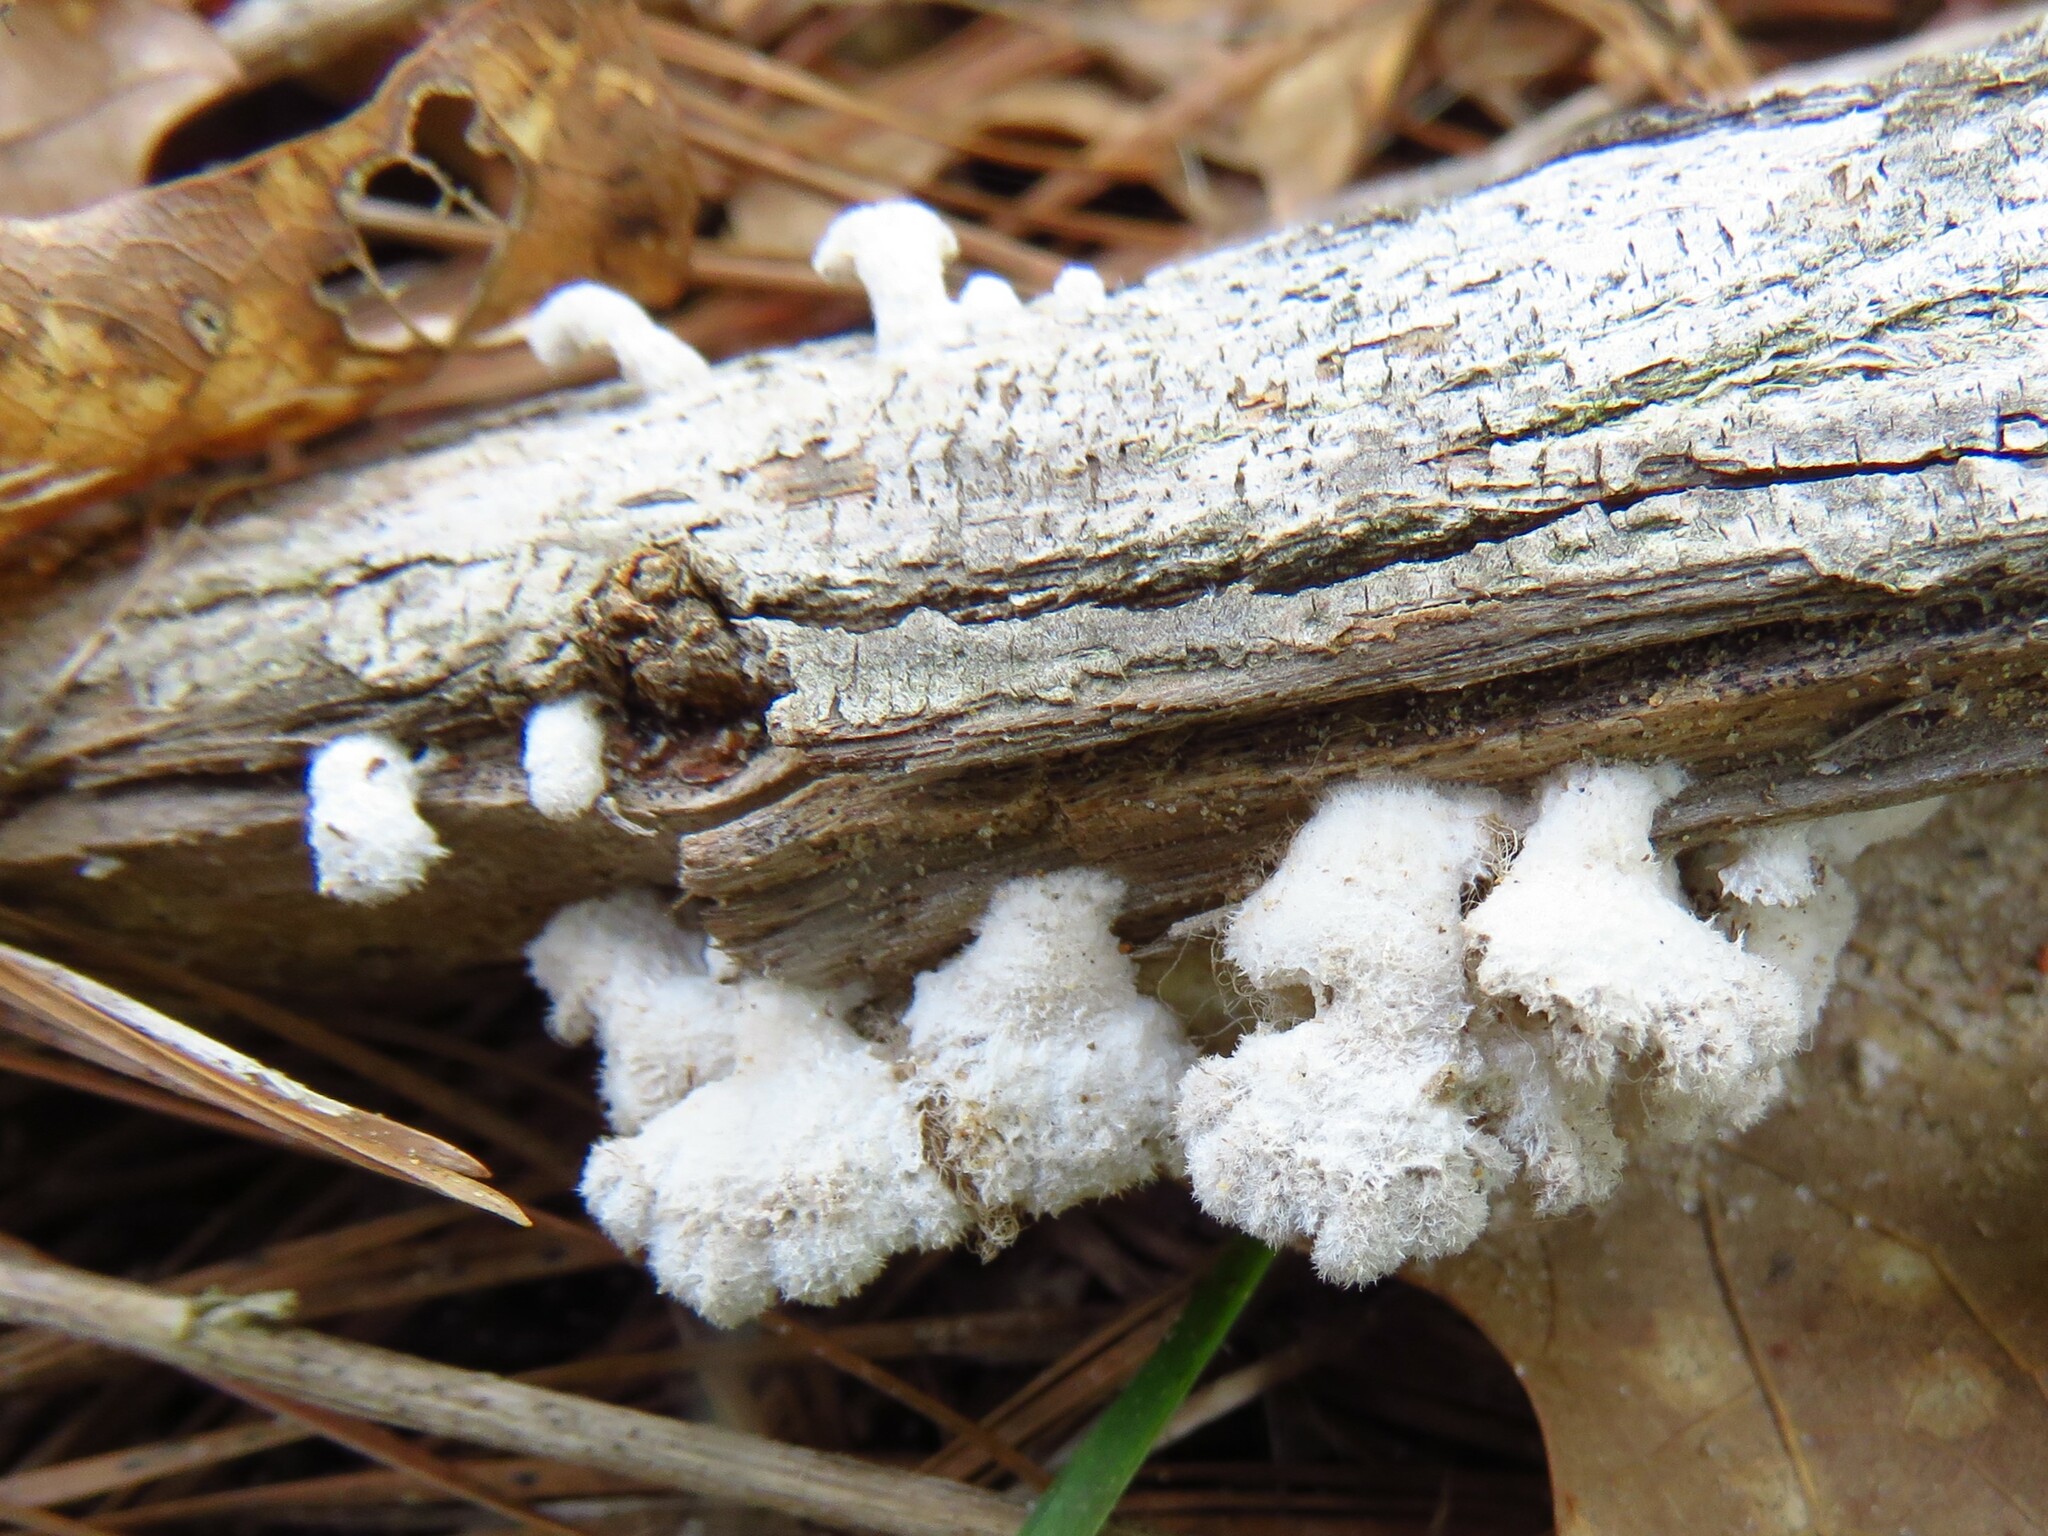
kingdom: Fungi
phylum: Basidiomycota
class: Agaricomycetes
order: Agaricales
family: Schizophyllaceae
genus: Schizophyllum
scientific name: Schizophyllum commune
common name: Common porecrust
